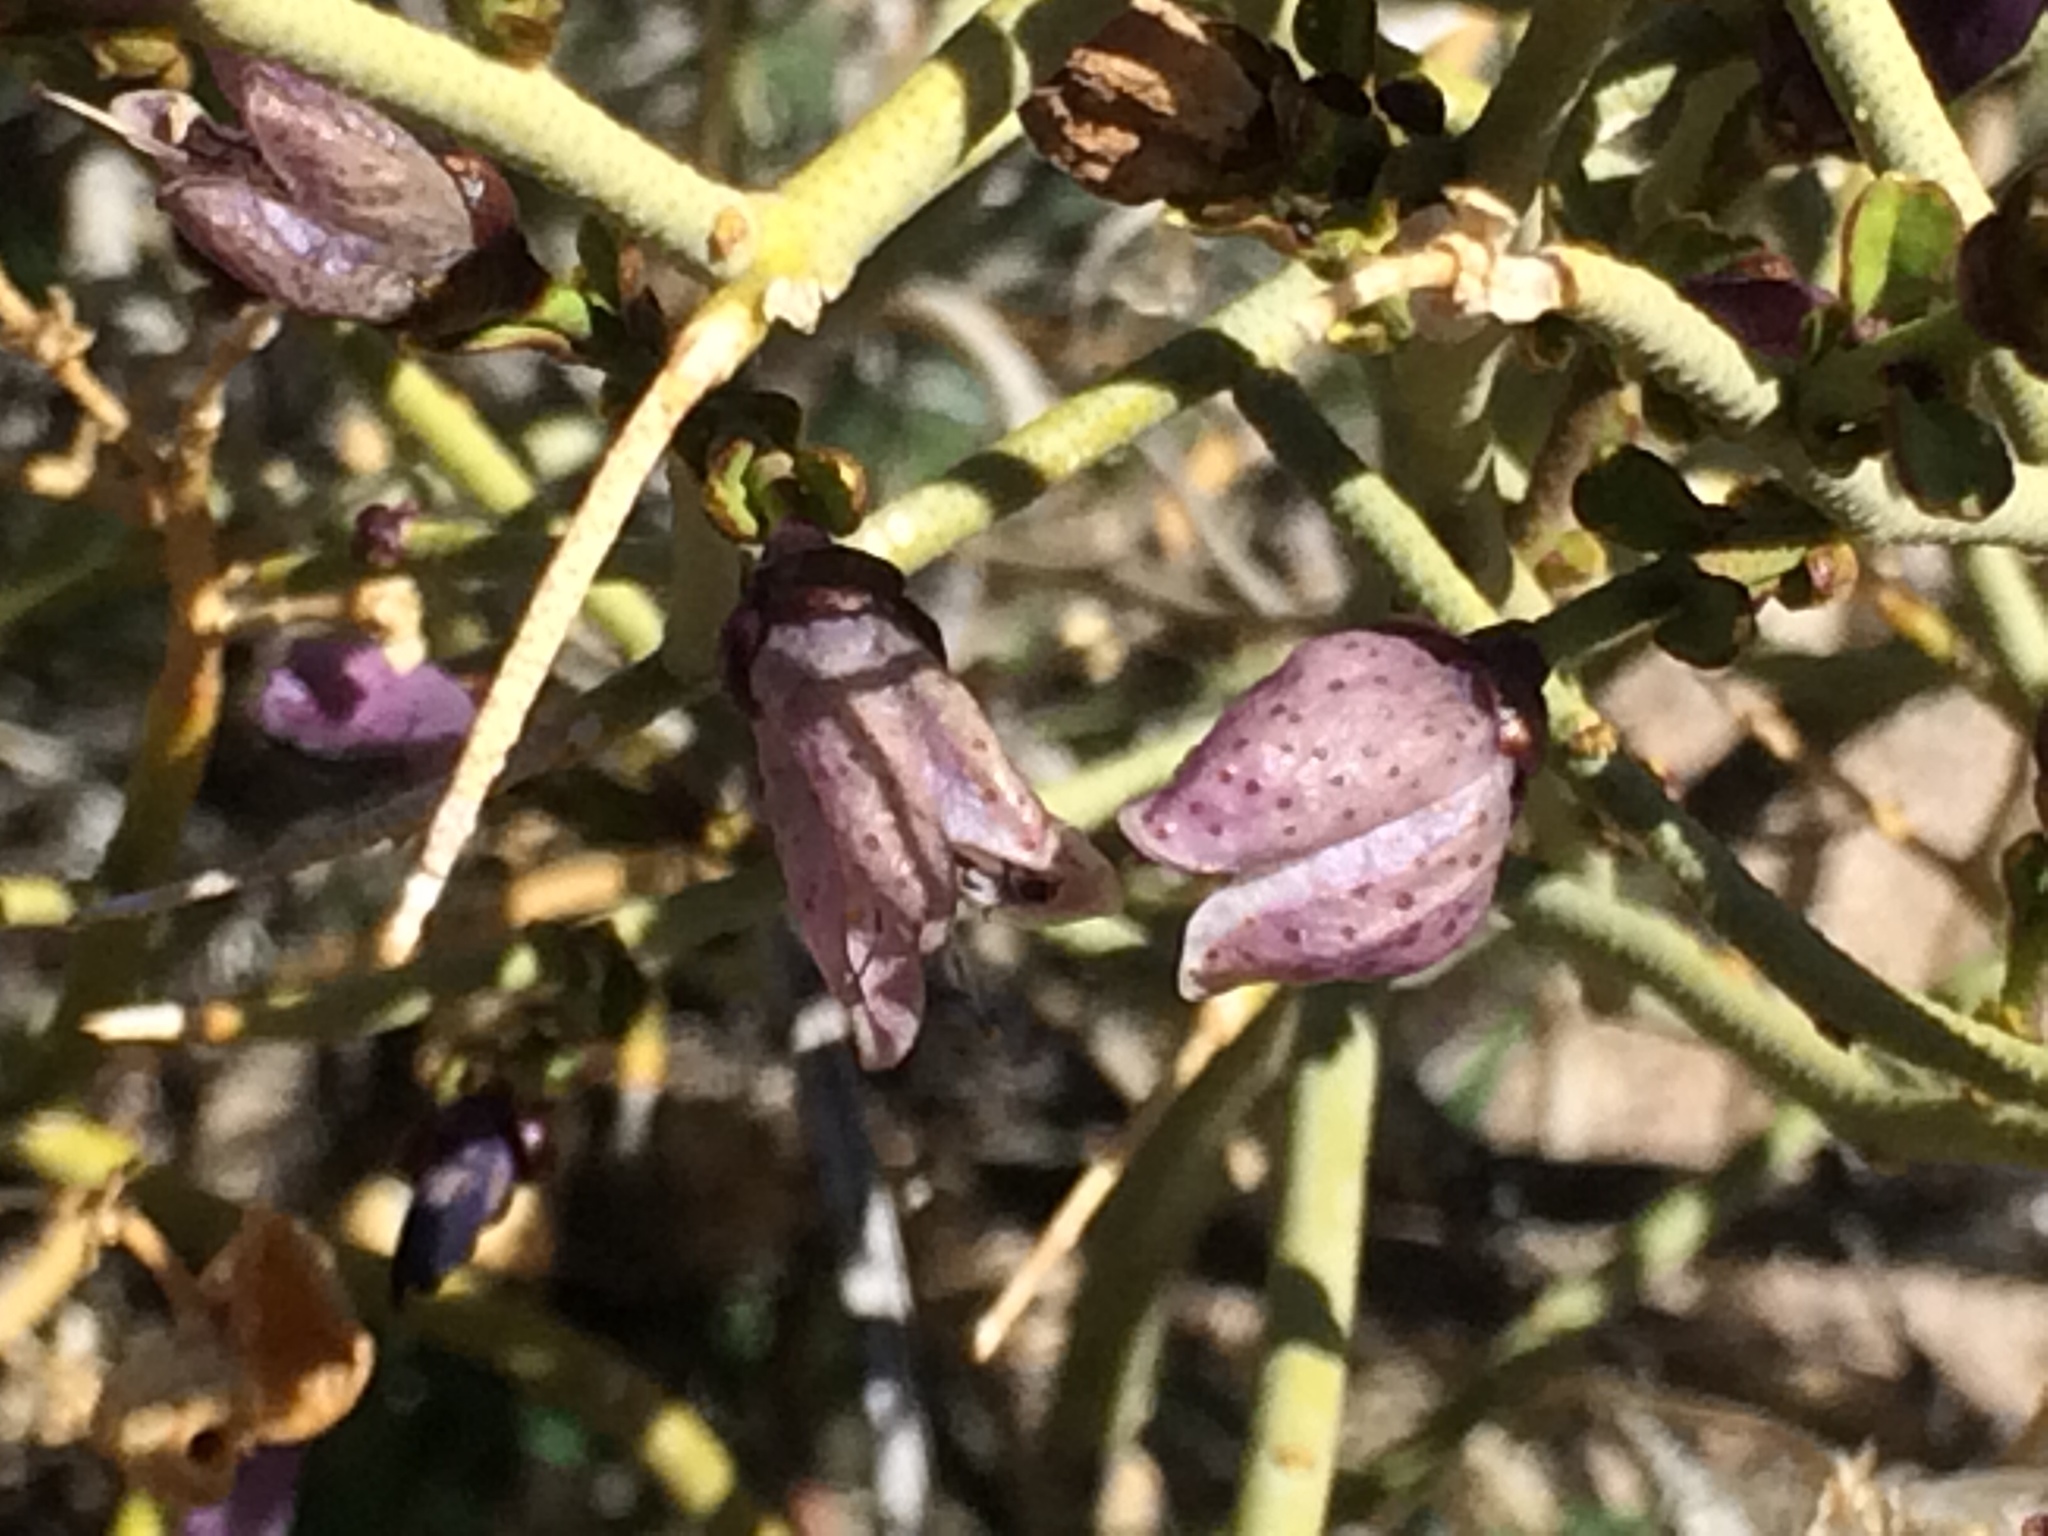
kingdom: Plantae
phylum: Tracheophyta
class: Magnoliopsida
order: Sapindales
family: Rutaceae
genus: Thamnosma
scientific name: Thamnosma montana
